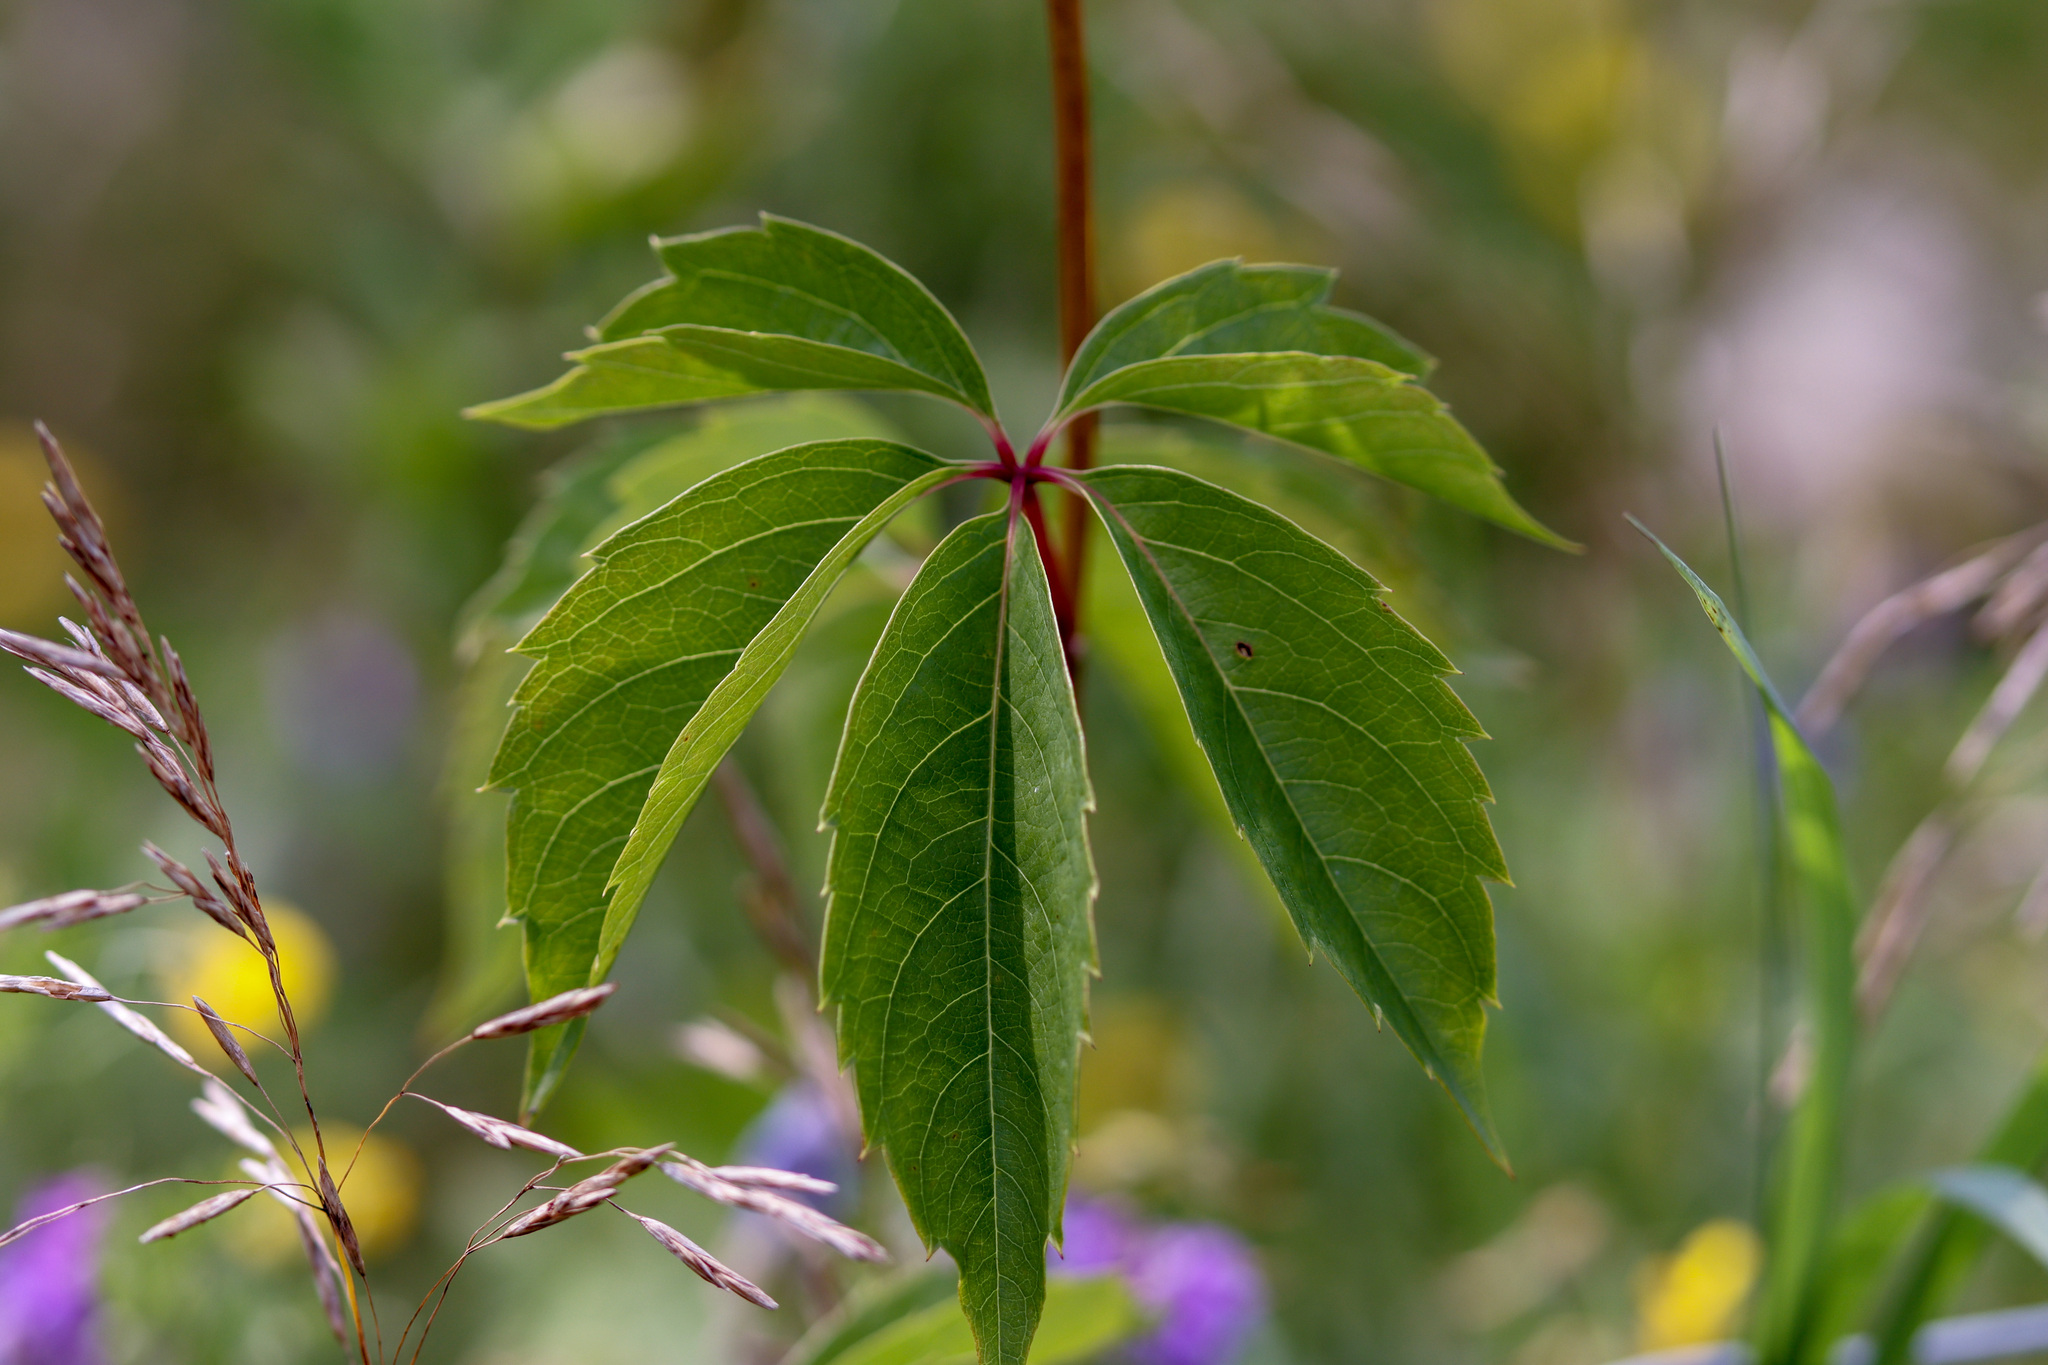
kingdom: Plantae
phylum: Tracheophyta
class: Magnoliopsida
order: Vitales
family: Vitaceae
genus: Parthenocissus
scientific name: Parthenocissus inserta
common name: False virginia-creeper
